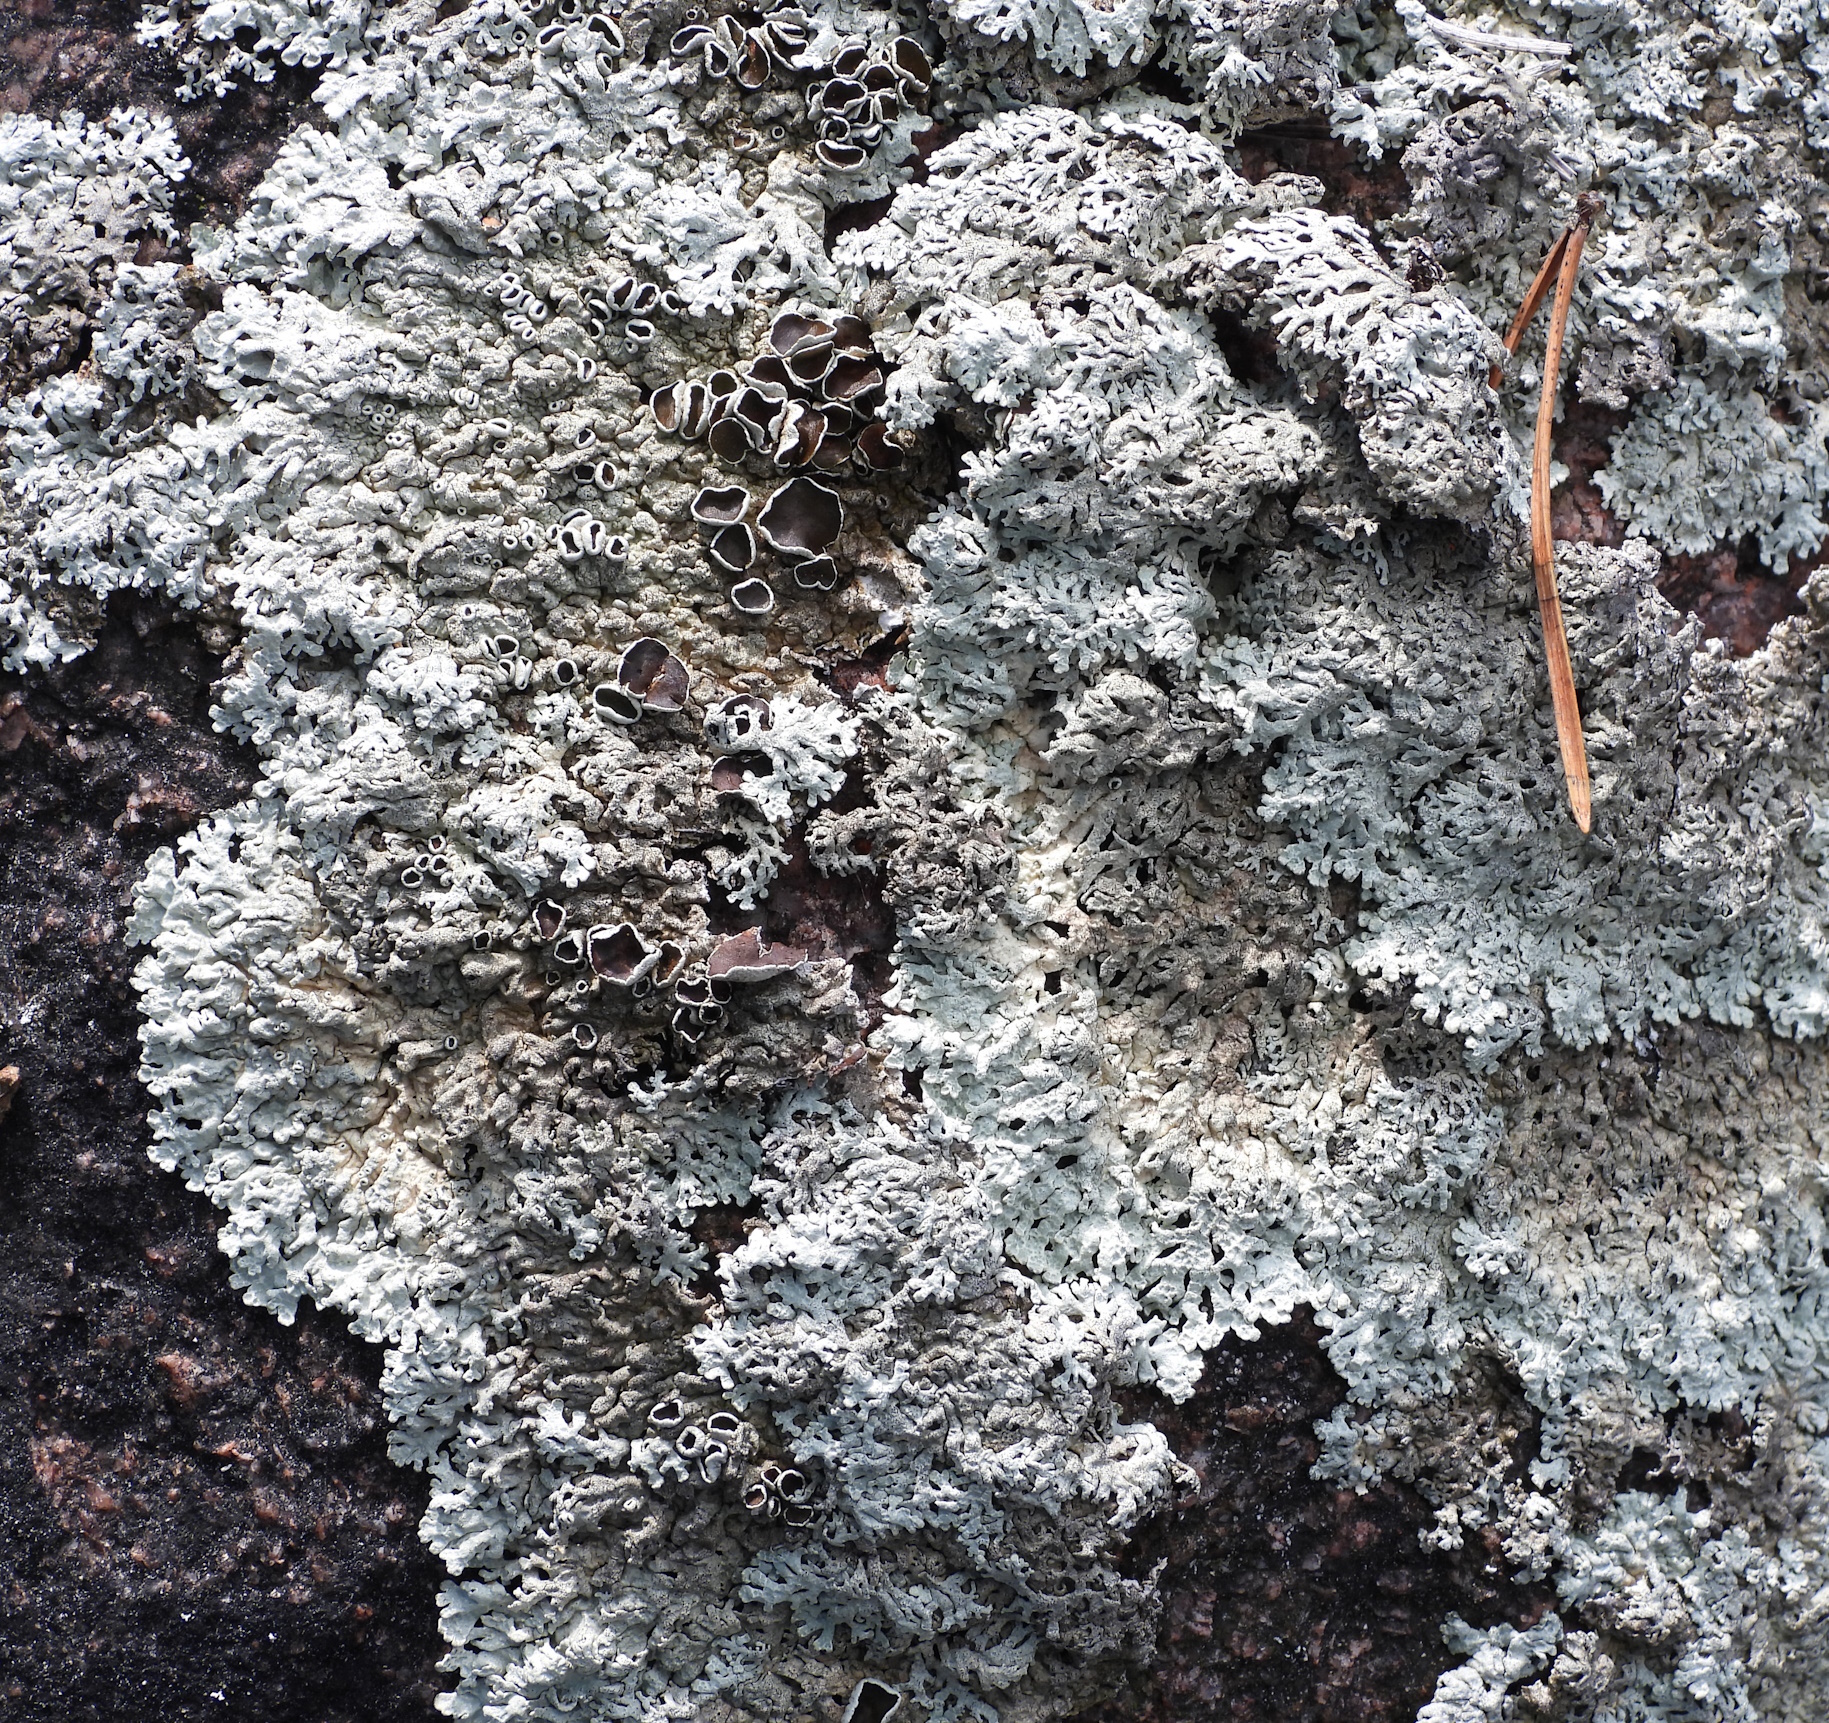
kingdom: Fungi
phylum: Ascomycota
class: Lecanoromycetes
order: Lecanorales
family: Parmeliaceae
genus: Arctoparmelia
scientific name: Arctoparmelia centrifuga
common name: Concentric ring lichen
